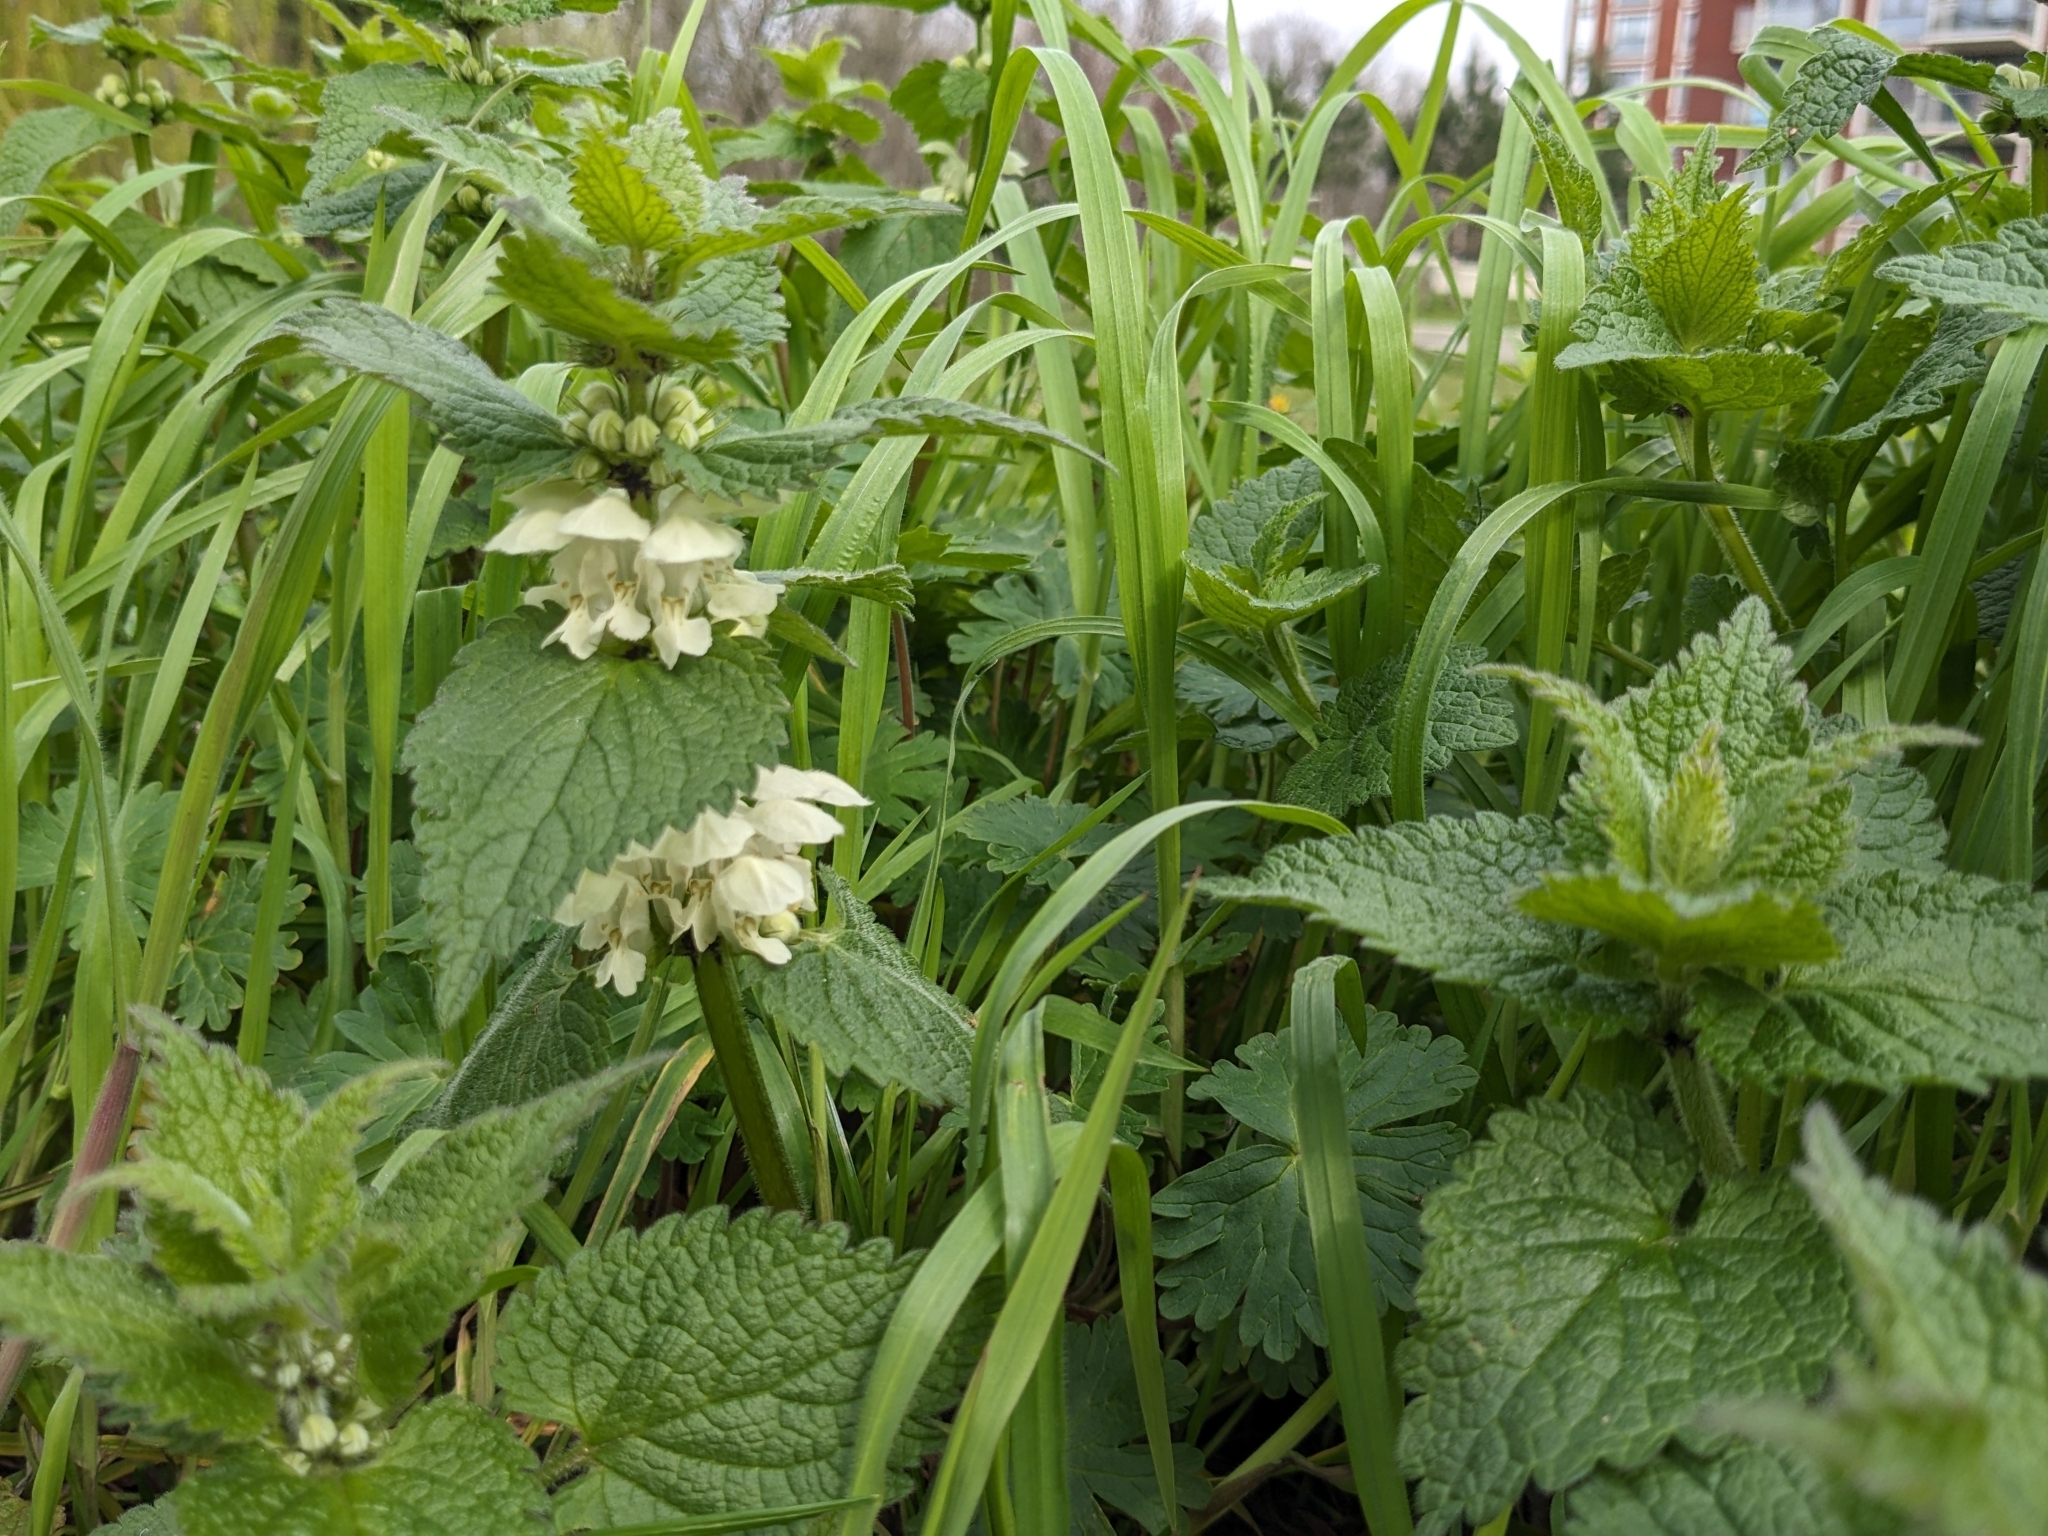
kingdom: Plantae
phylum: Tracheophyta
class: Magnoliopsida
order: Lamiales
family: Lamiaceae
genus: Lamium
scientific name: Lamium album
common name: White dead-nettle
